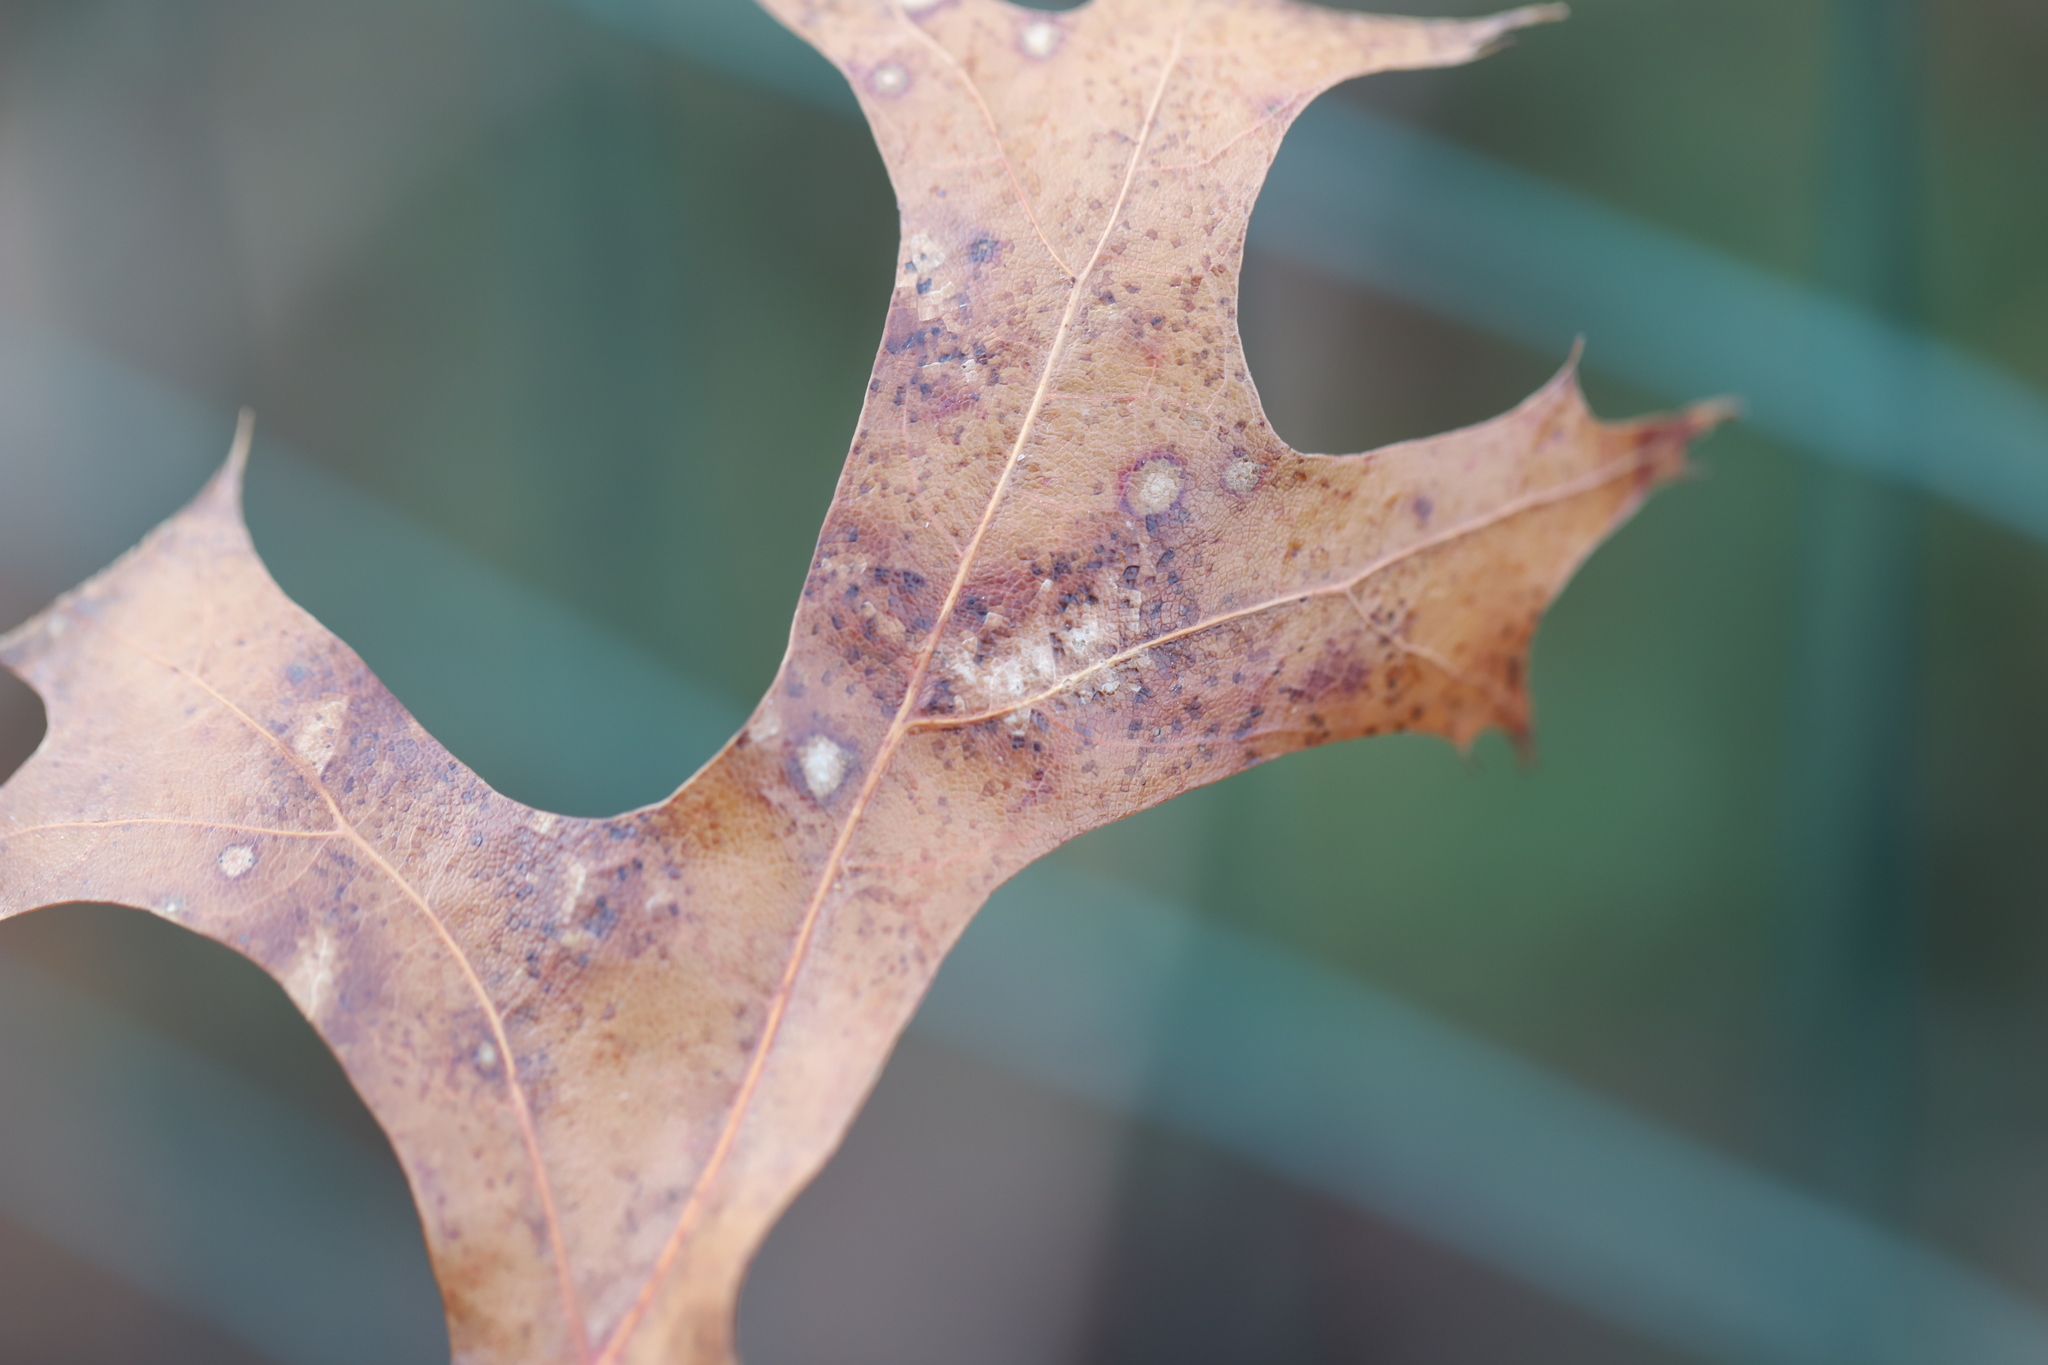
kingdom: Fungi
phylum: Ascomycota
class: Sordariomycetes
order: Diaporthales
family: Melanconidaceae
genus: Dicarpella
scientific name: Dicarpella dryina
